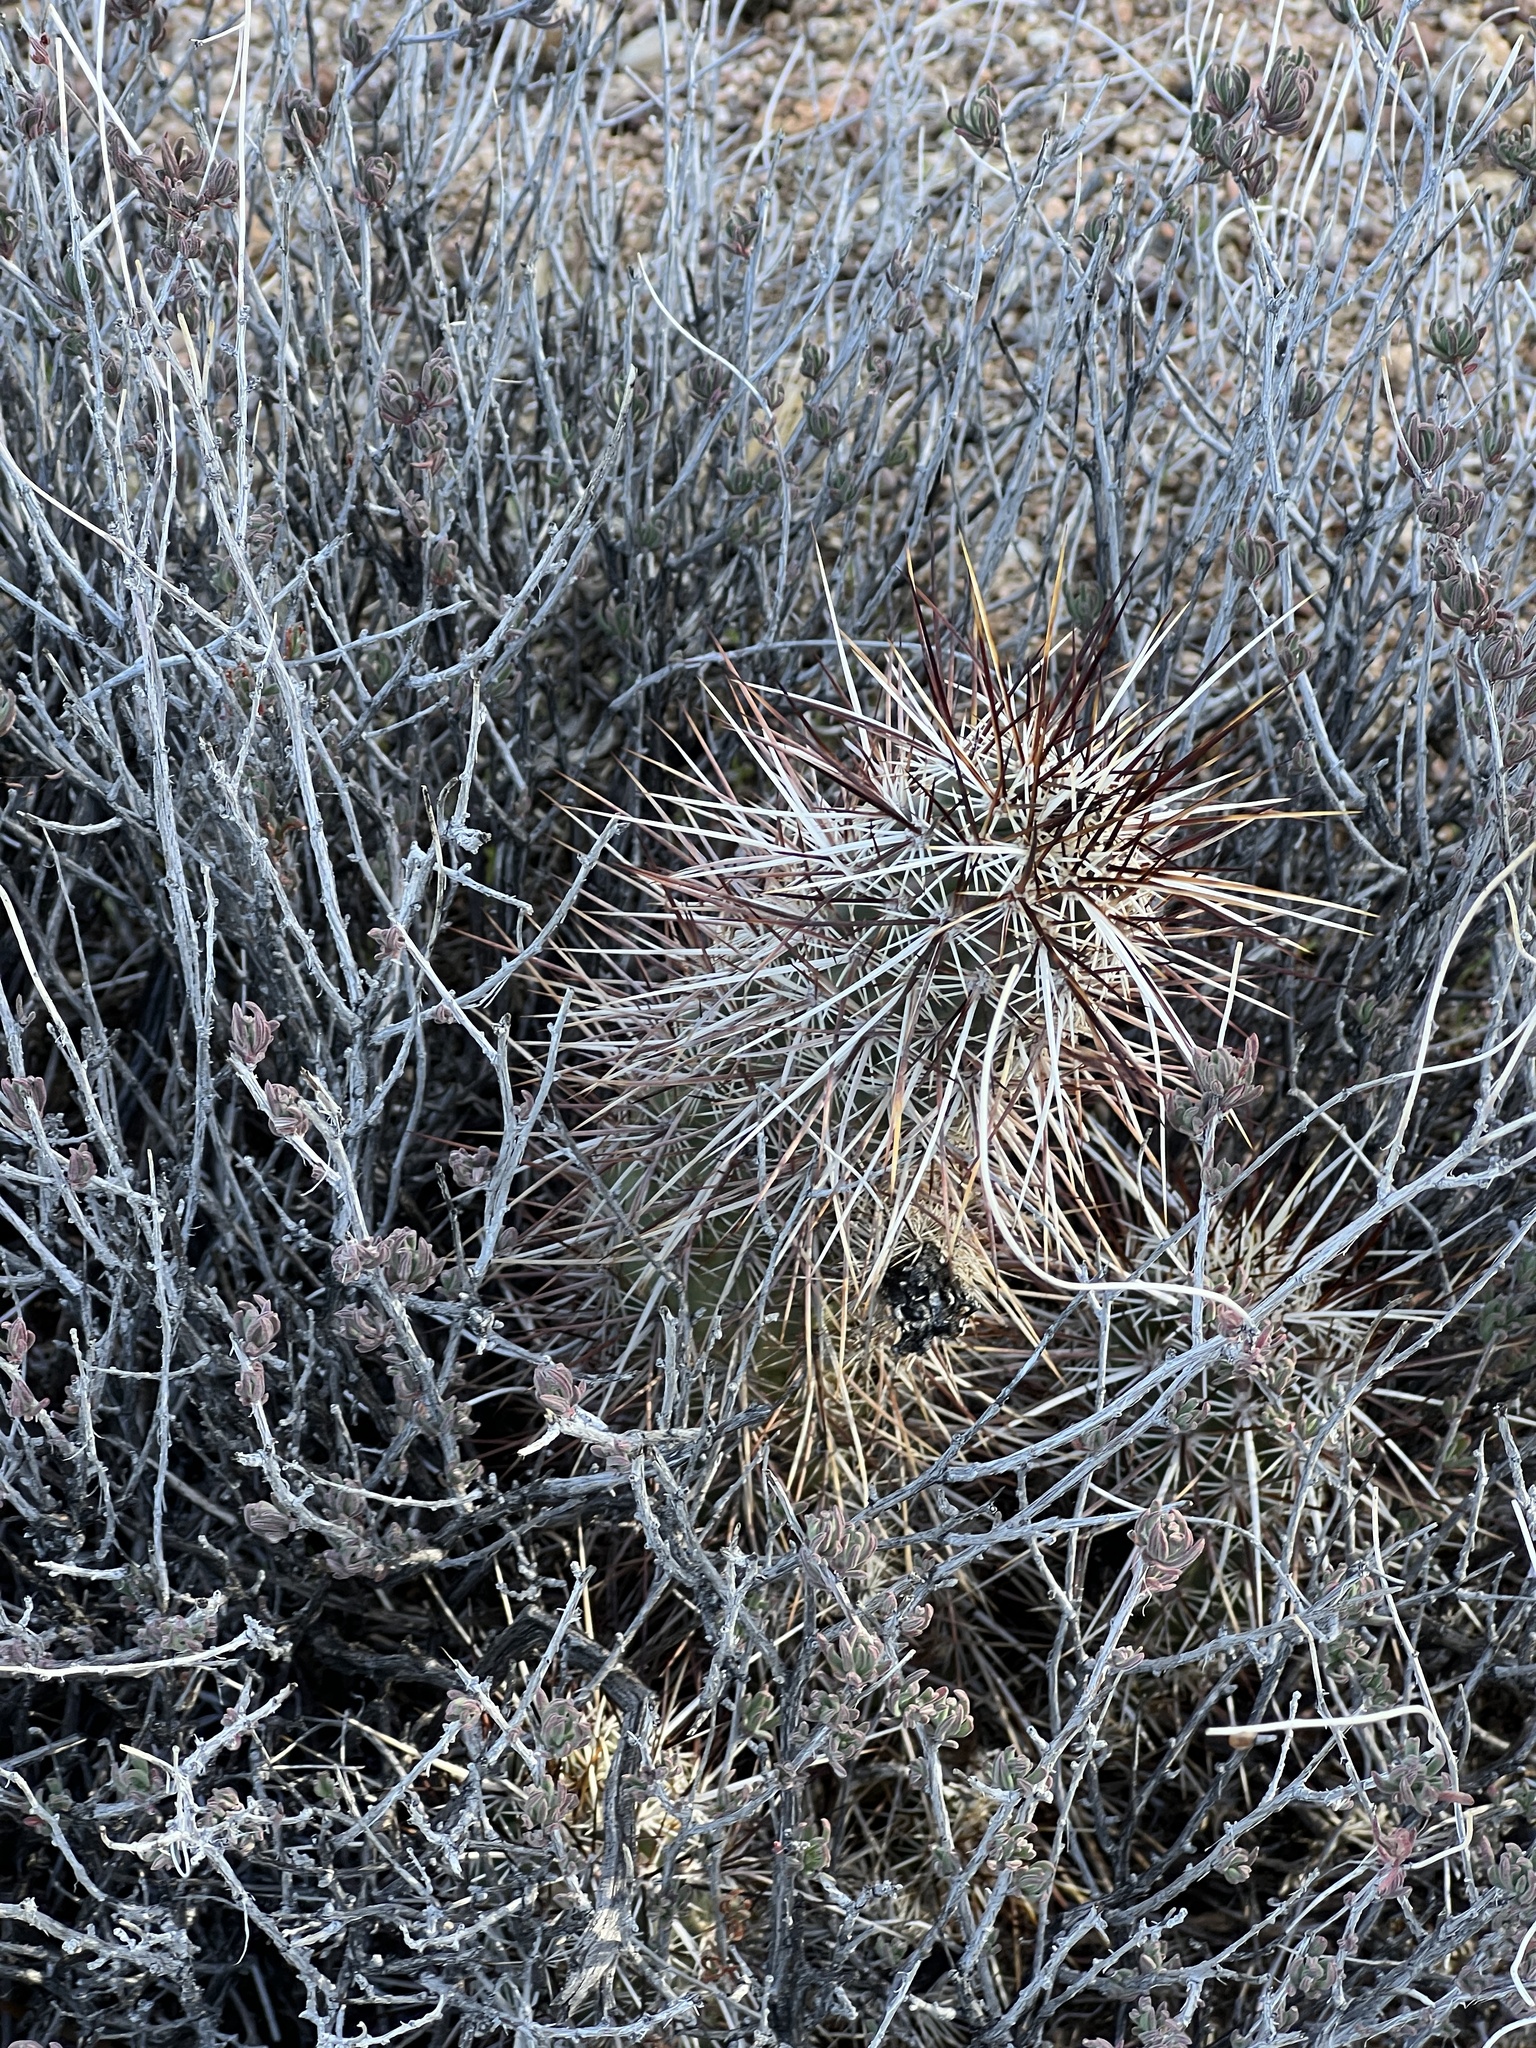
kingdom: Plantae
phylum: Tracheophyta
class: Magnoliopsida
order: Caryophyllales
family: Cactaceae
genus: Echinocereus
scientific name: Echinocereus engelmannii
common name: Engelmann's hedgehog cactus
